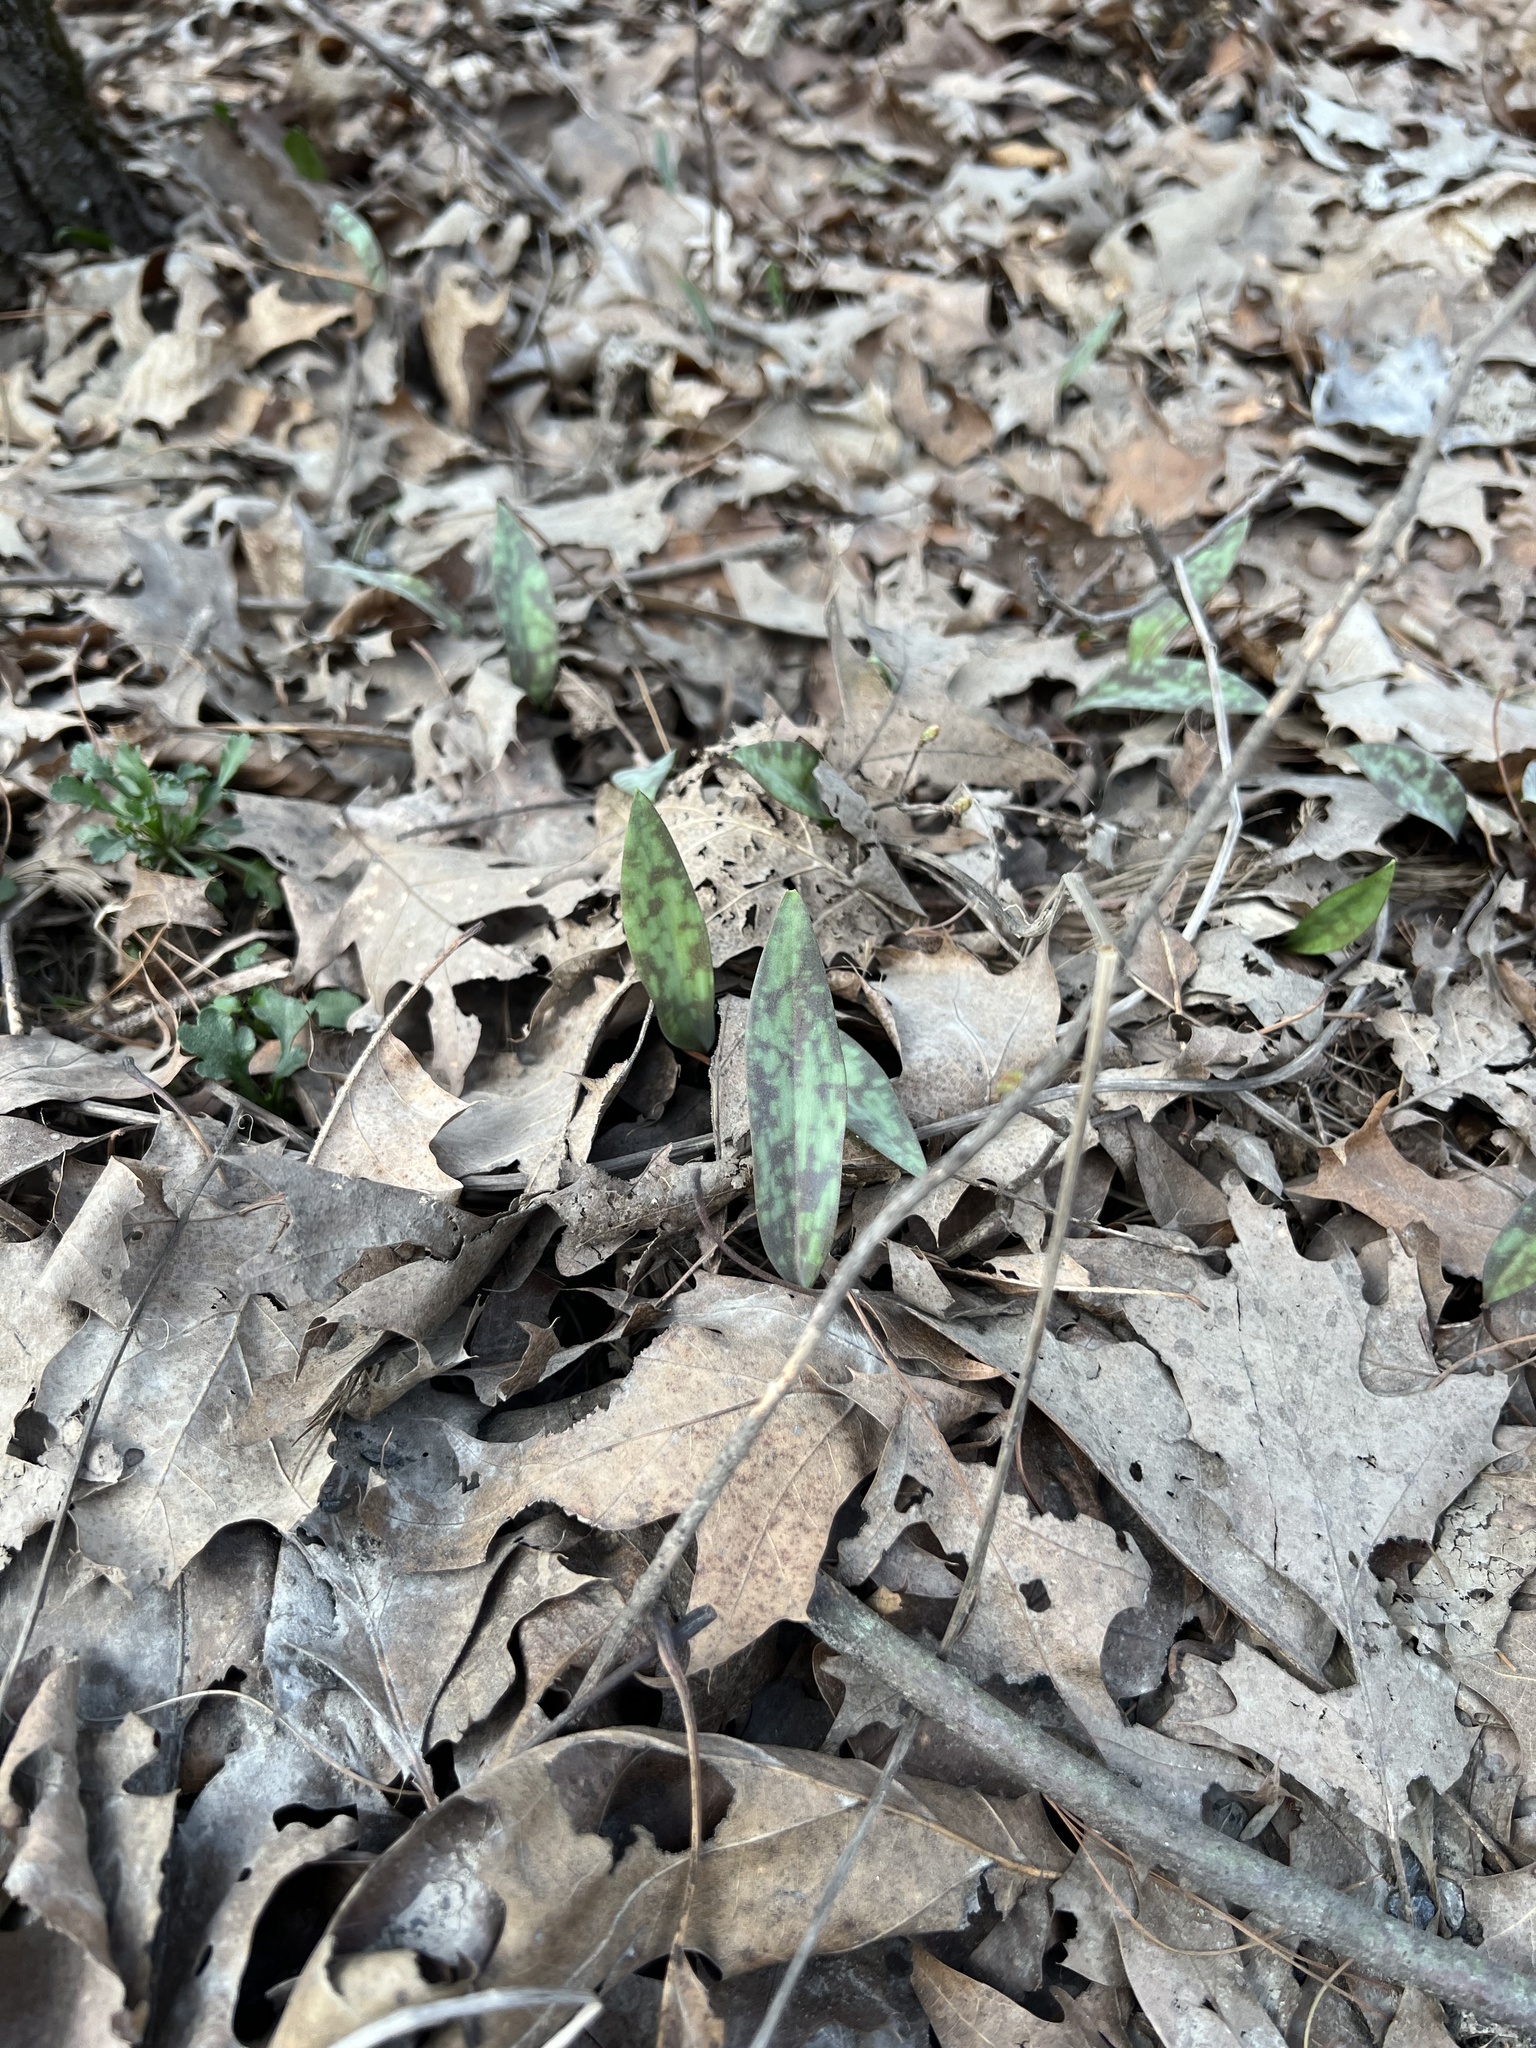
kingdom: Plantae
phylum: Tracheophyta
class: Liliopsida
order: Liliales
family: Liliaceae
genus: Erythronium
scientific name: Erythronium americanum
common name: Yellow adder's-tongue
